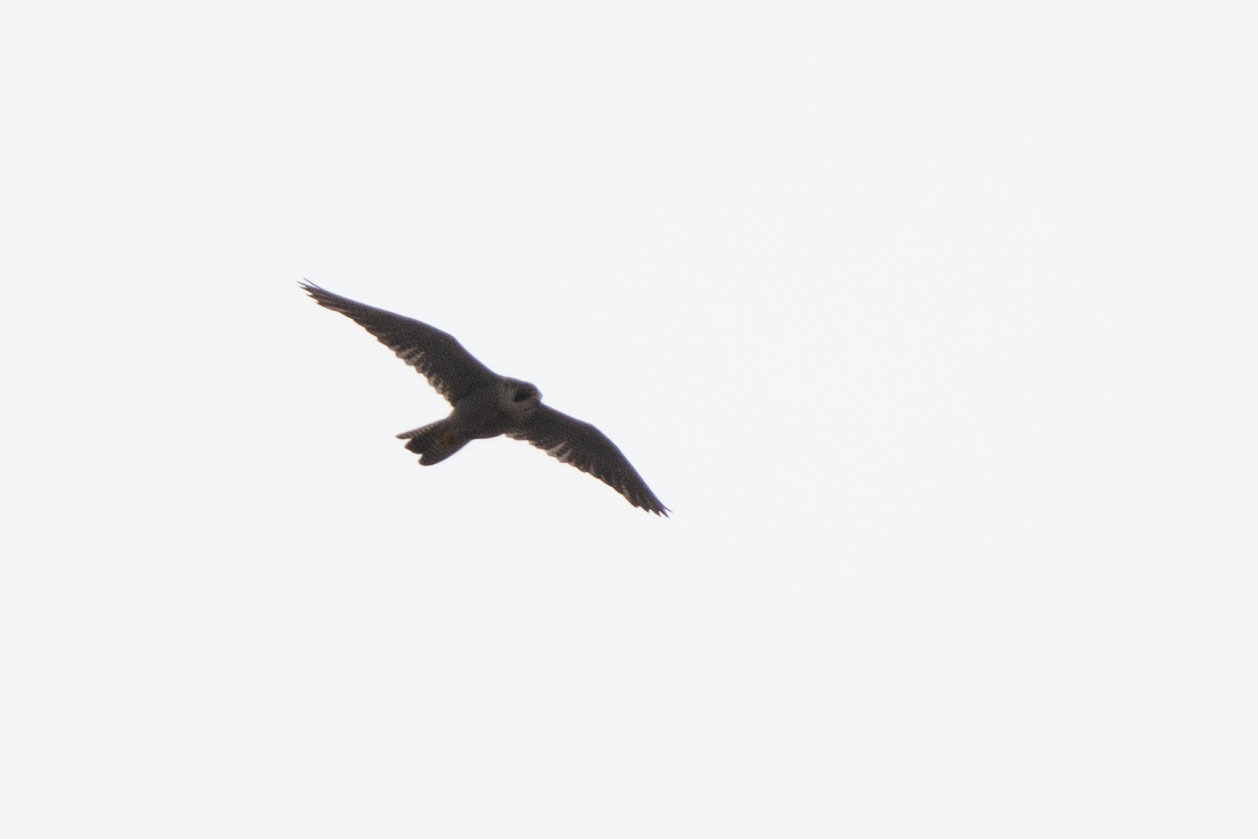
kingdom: Animalia
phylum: Chordata
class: Aves
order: Falconiformes
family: Falconidae
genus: Falco
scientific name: Falco peregrinus
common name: Peregrine falcon
